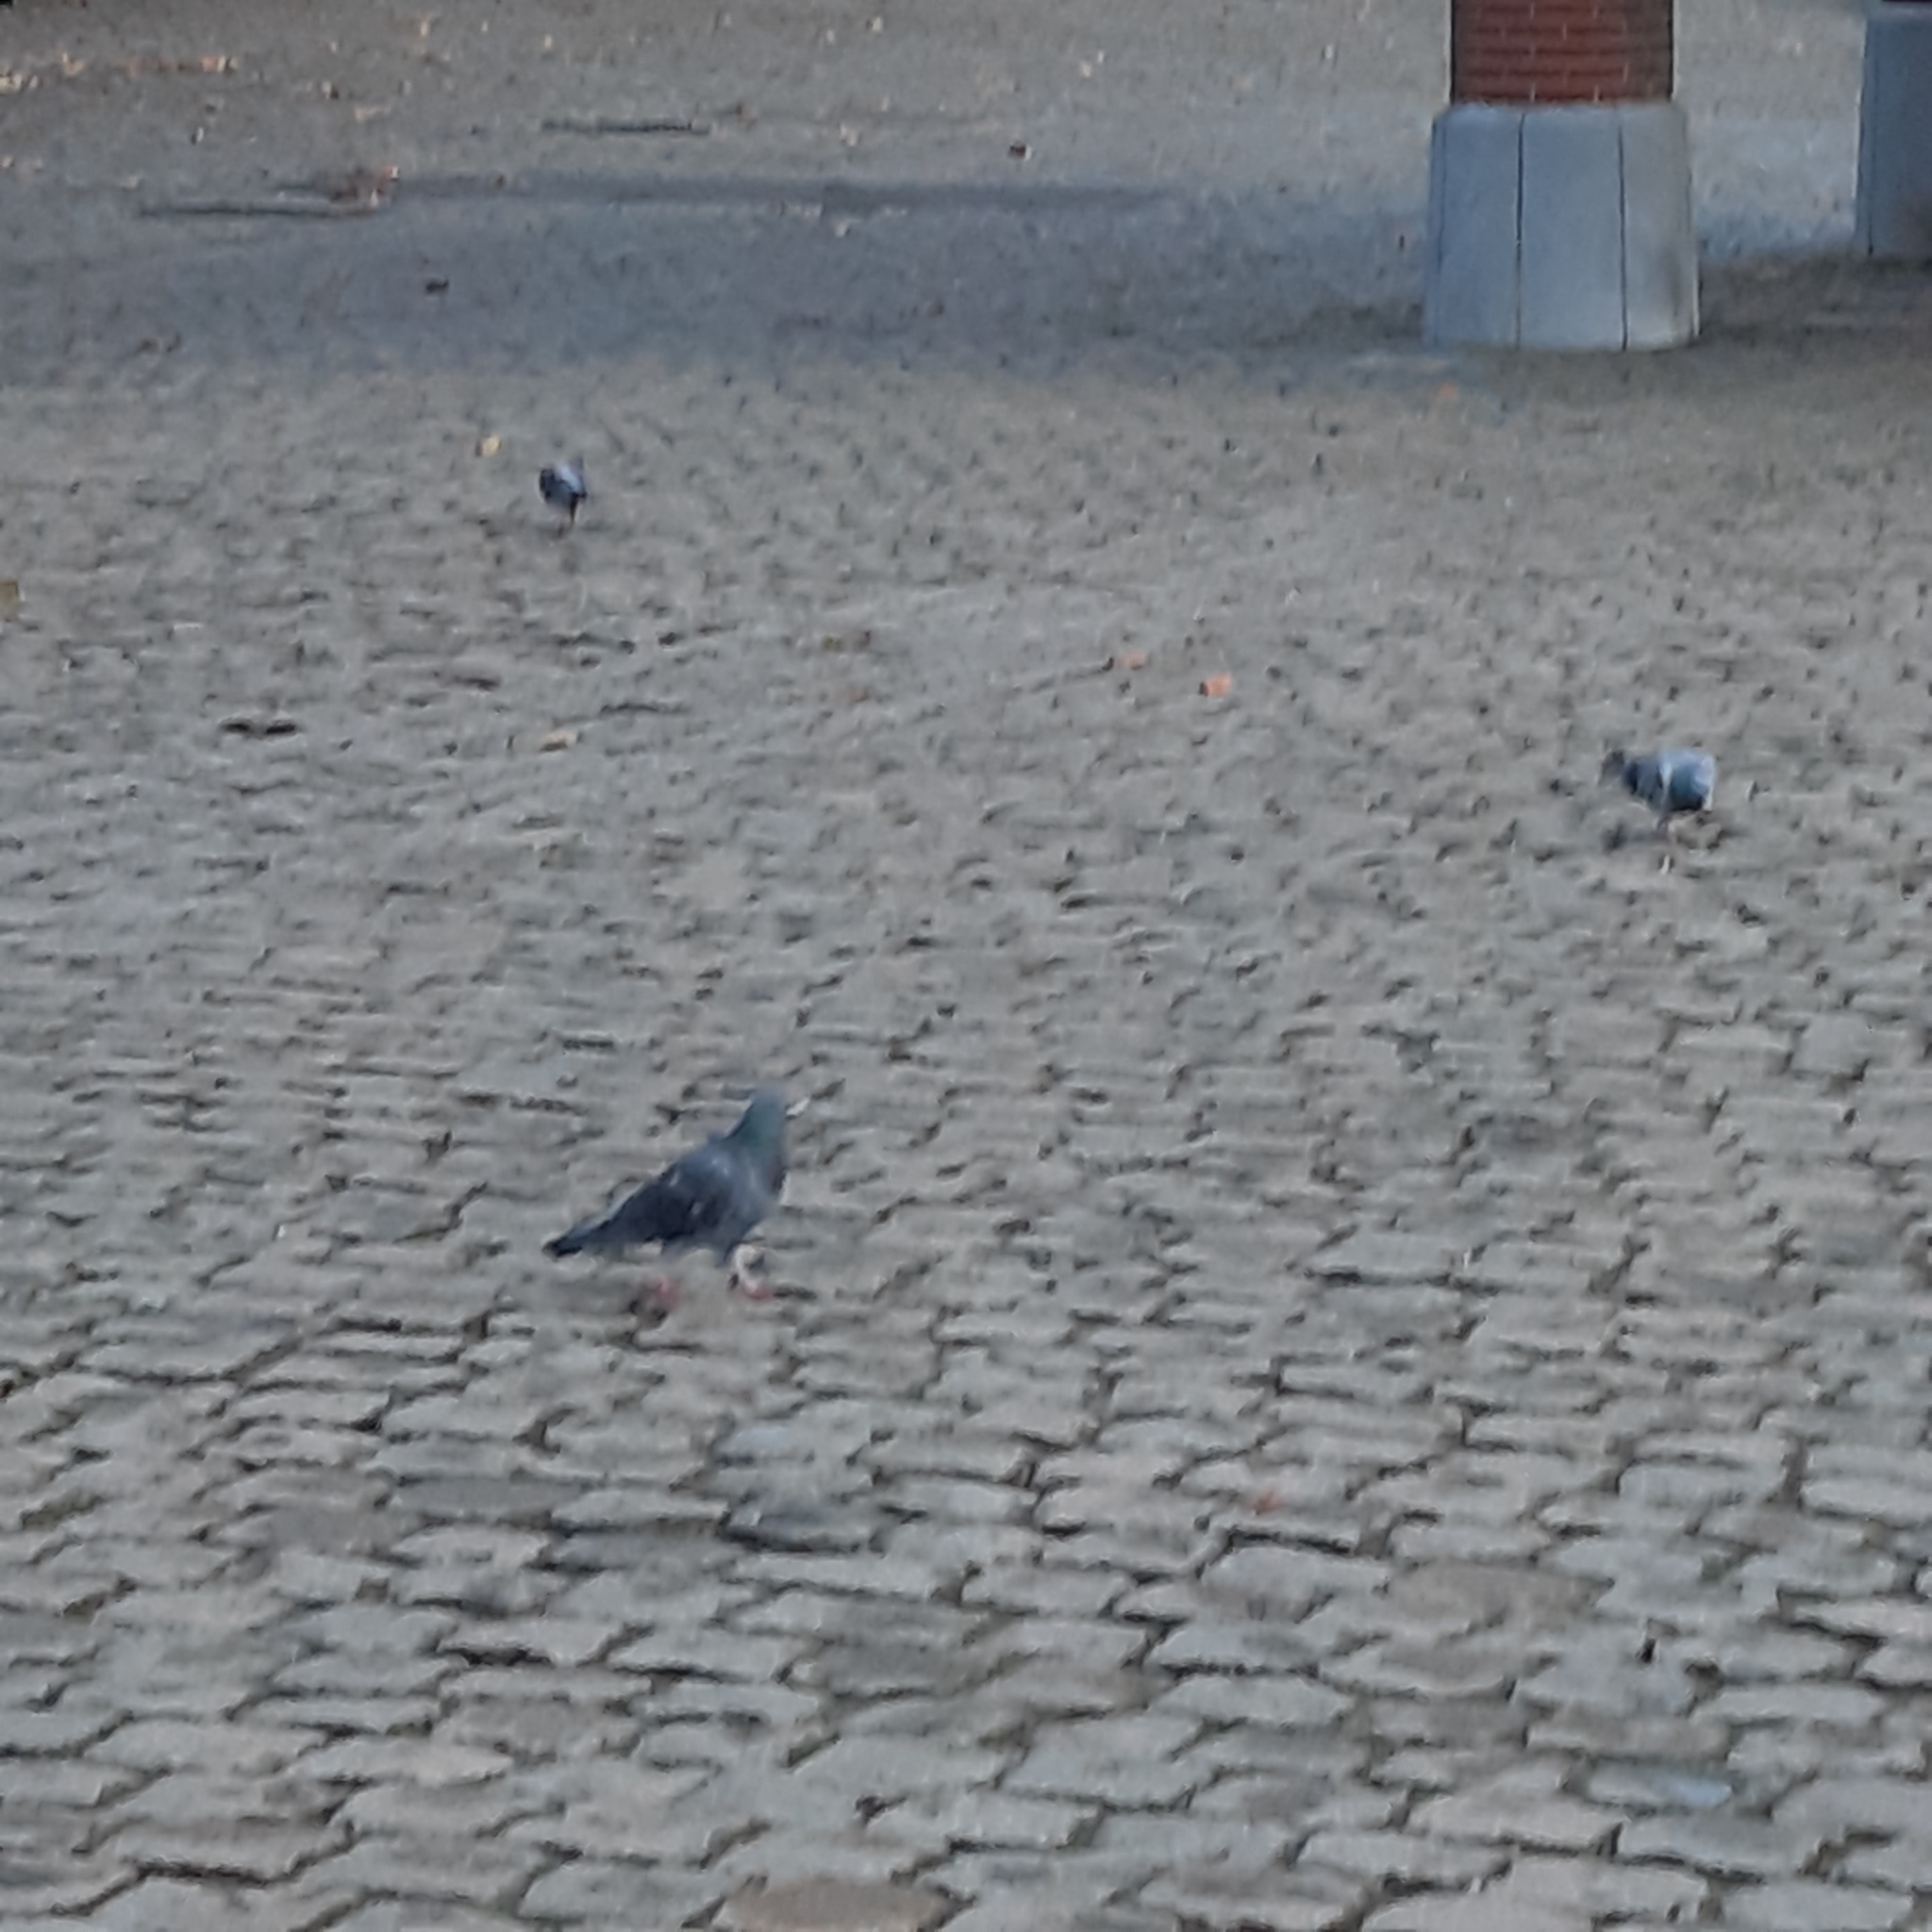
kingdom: Animalia
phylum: Chordata
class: Aves
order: Columbiformes
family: Columbidae
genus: Columba
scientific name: Columba livia
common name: Rock pigeon
